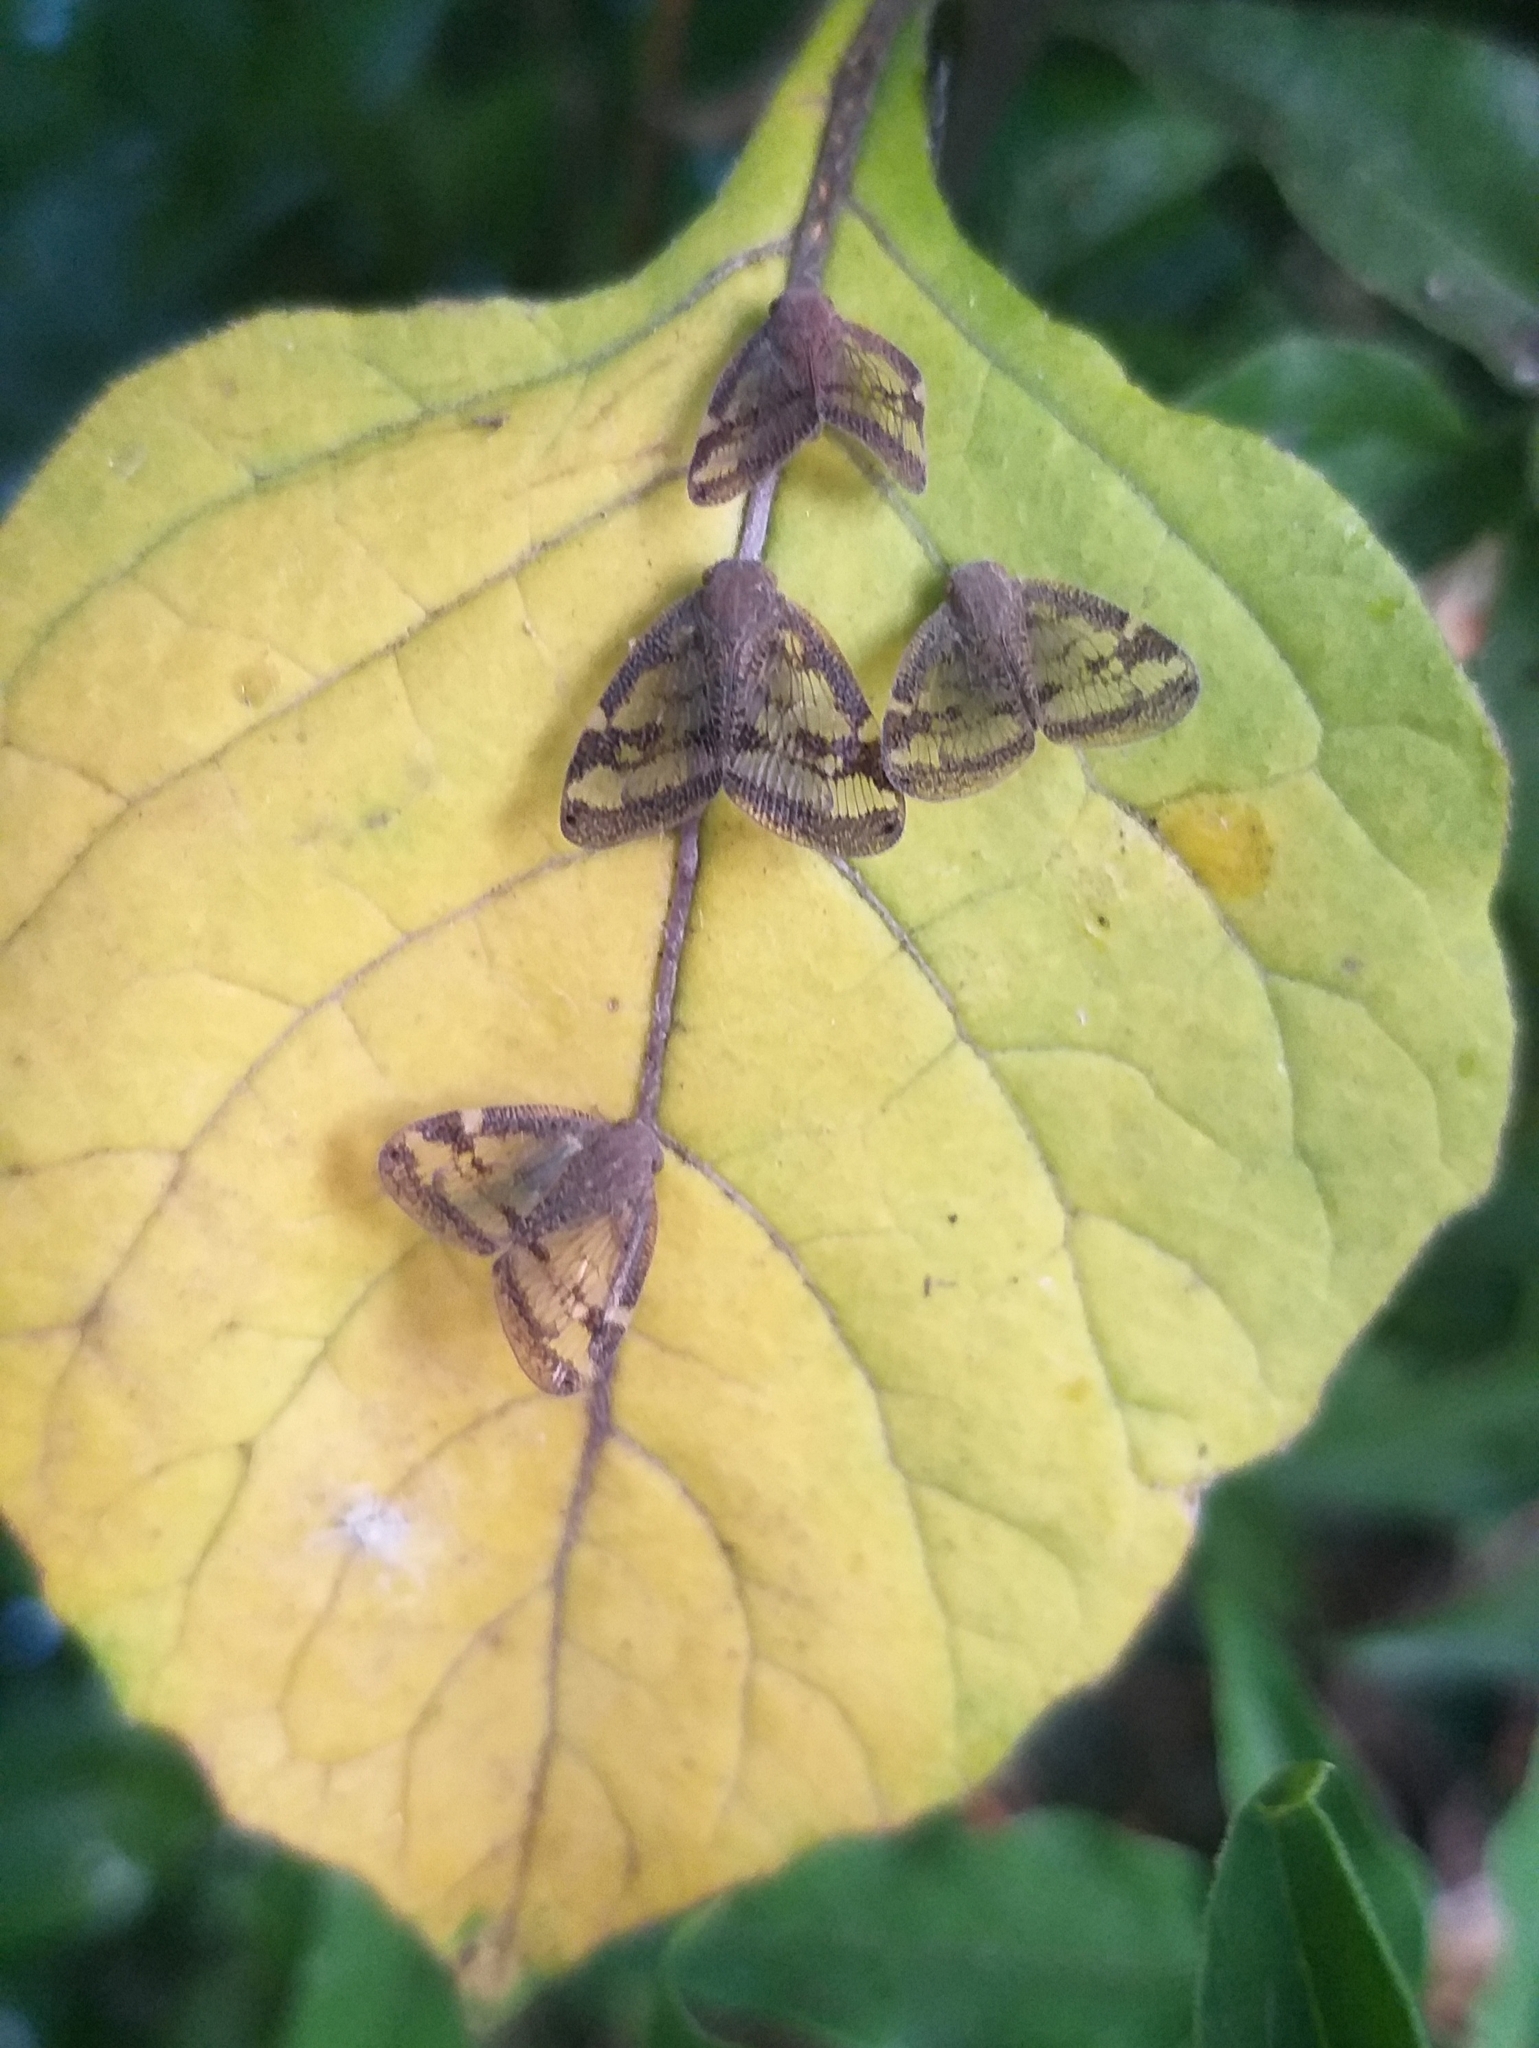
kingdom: Animalia
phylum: Arthropoda
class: Insecta
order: Hemiptera
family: Ricaniidae
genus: Scolypopa
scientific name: Scolypopa australis
